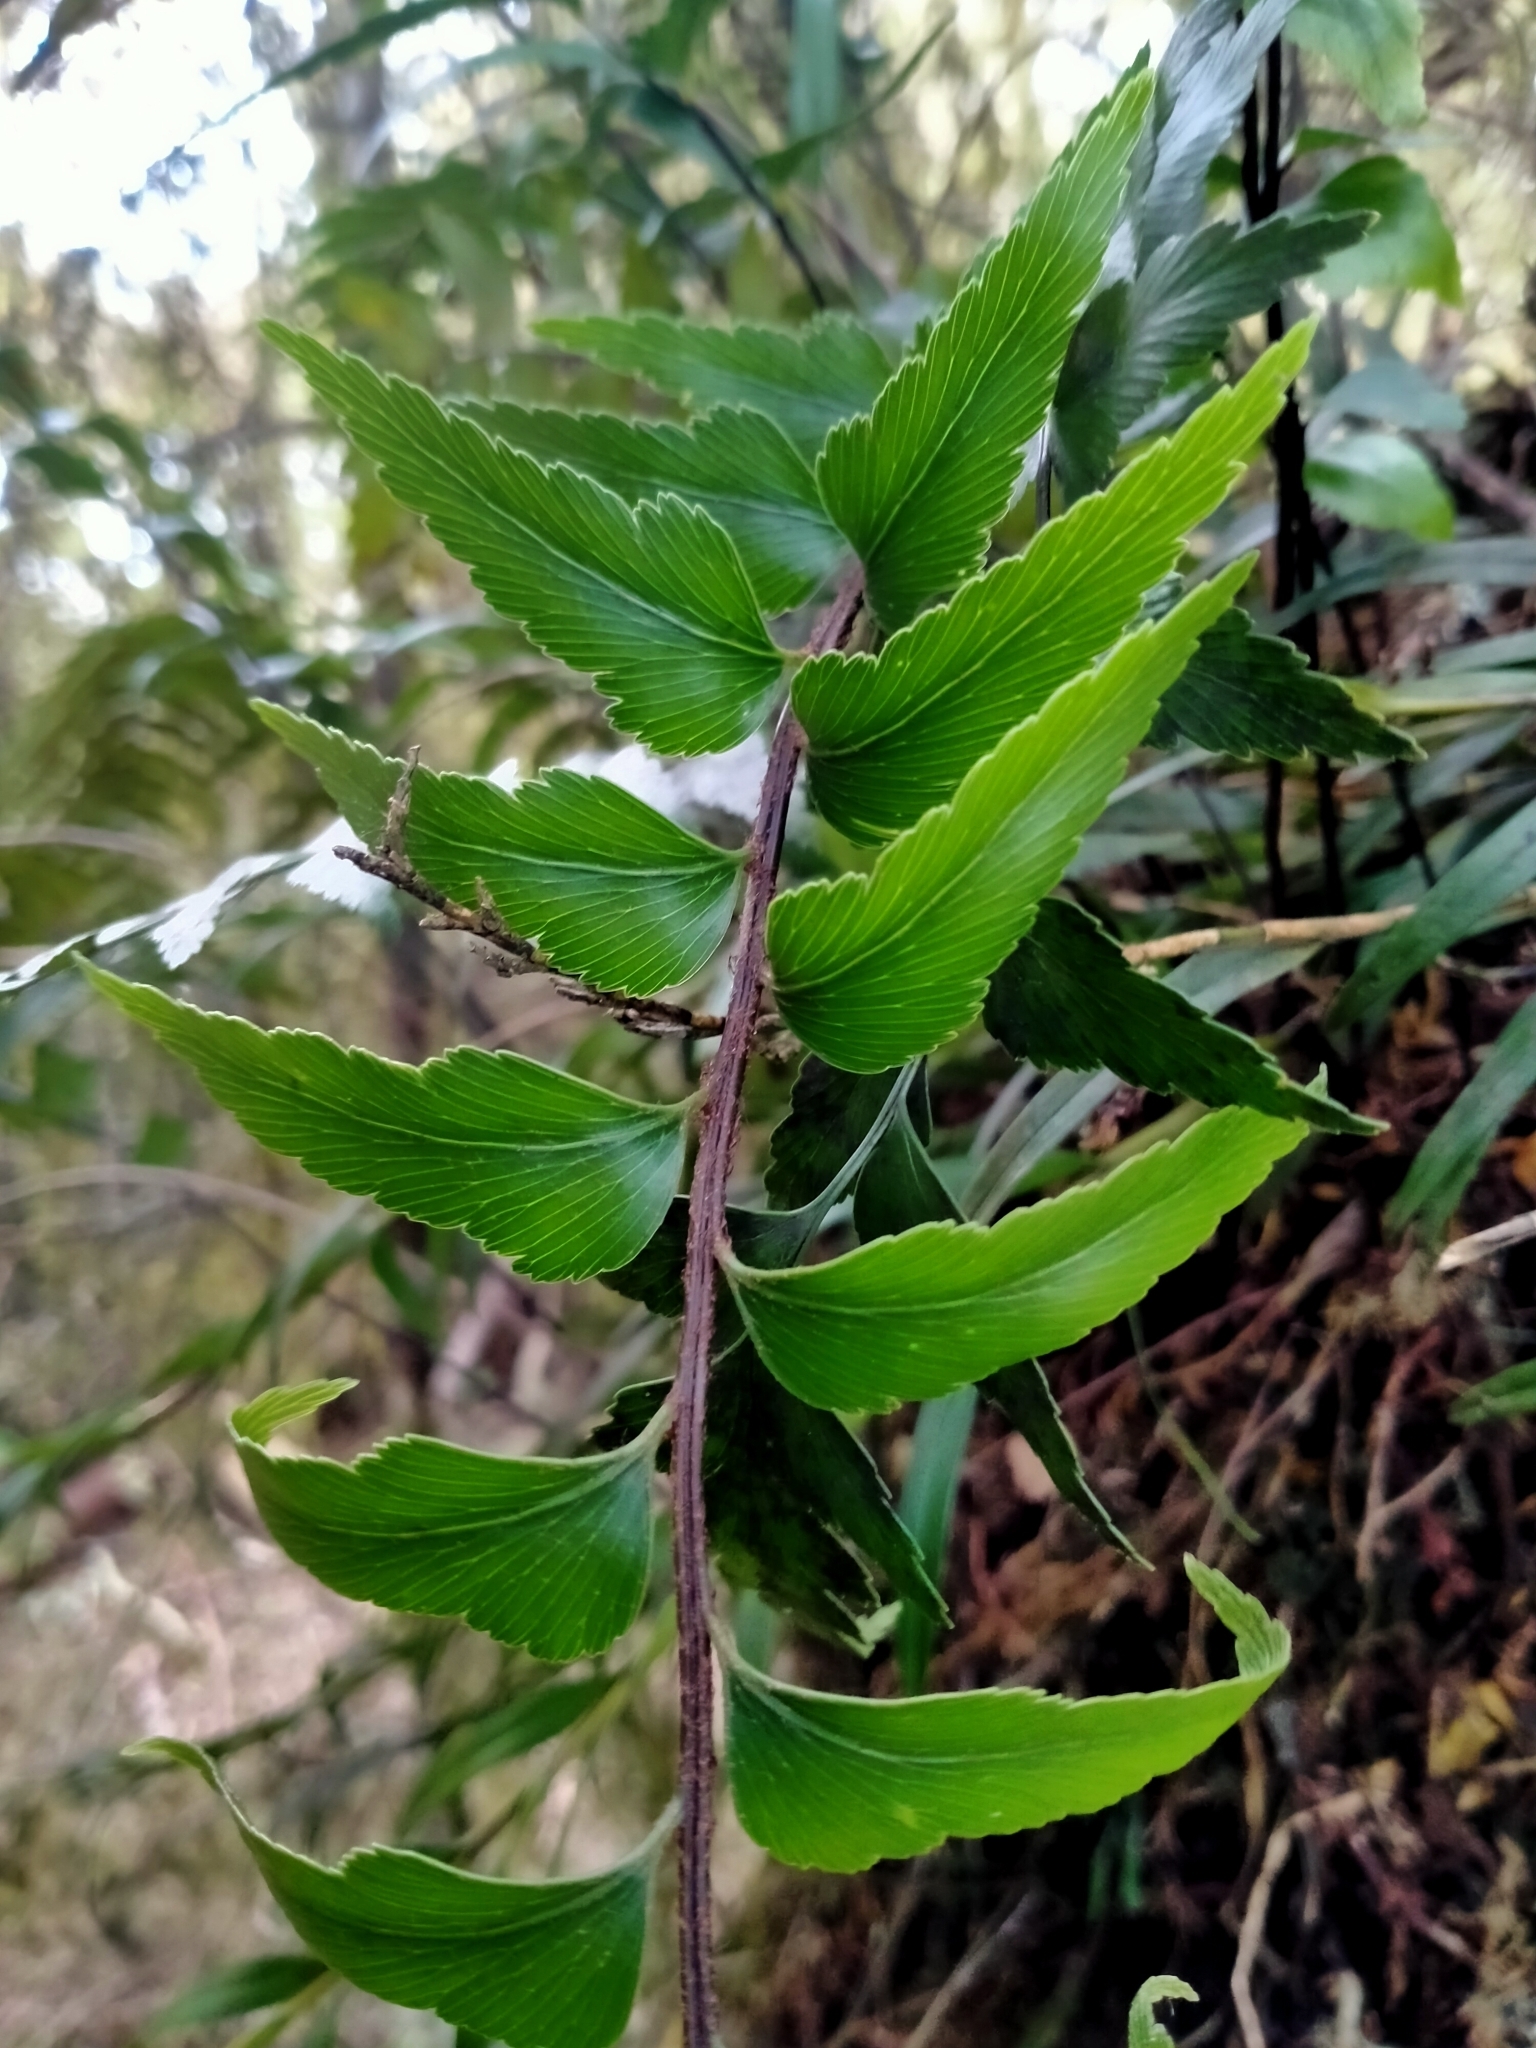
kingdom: Plantae
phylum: Tracheophyta
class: Polypodiopsida
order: Polypodiales
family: Aspleniaceae
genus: Asplenium
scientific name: Asplenium polyodon
